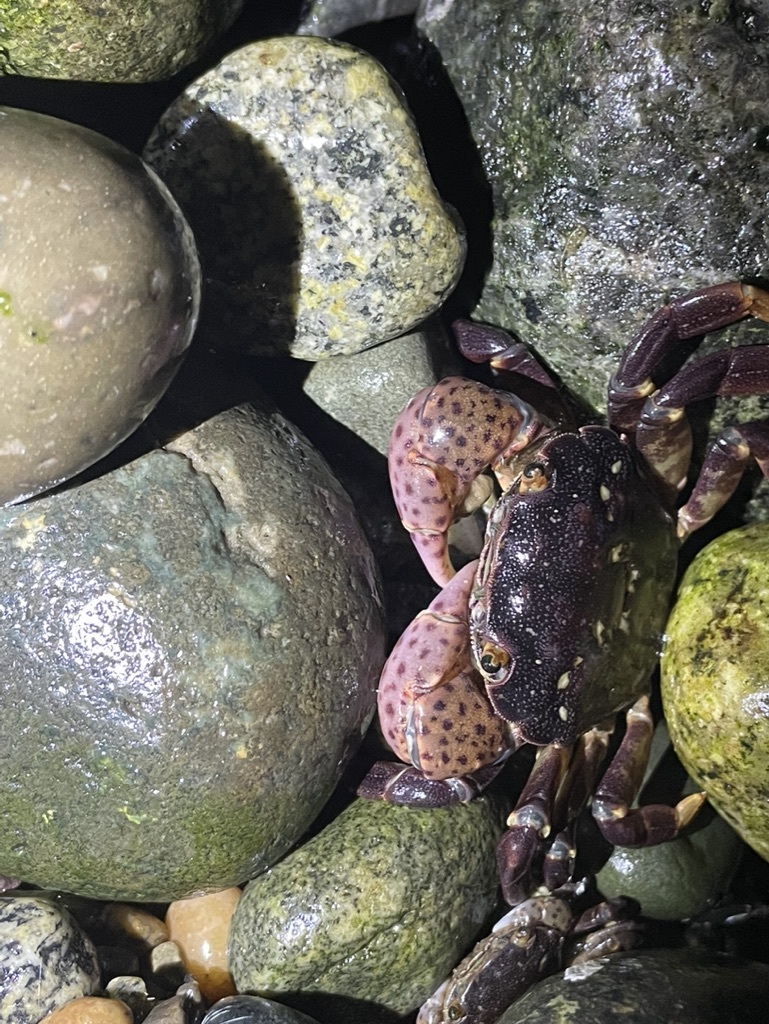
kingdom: Animalia
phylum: Arthropoda
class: Malacostraca
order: Decapoda
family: Varunidae
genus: Hemigrapsus
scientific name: Hemigrapsus nudus
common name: Purple shore crab
